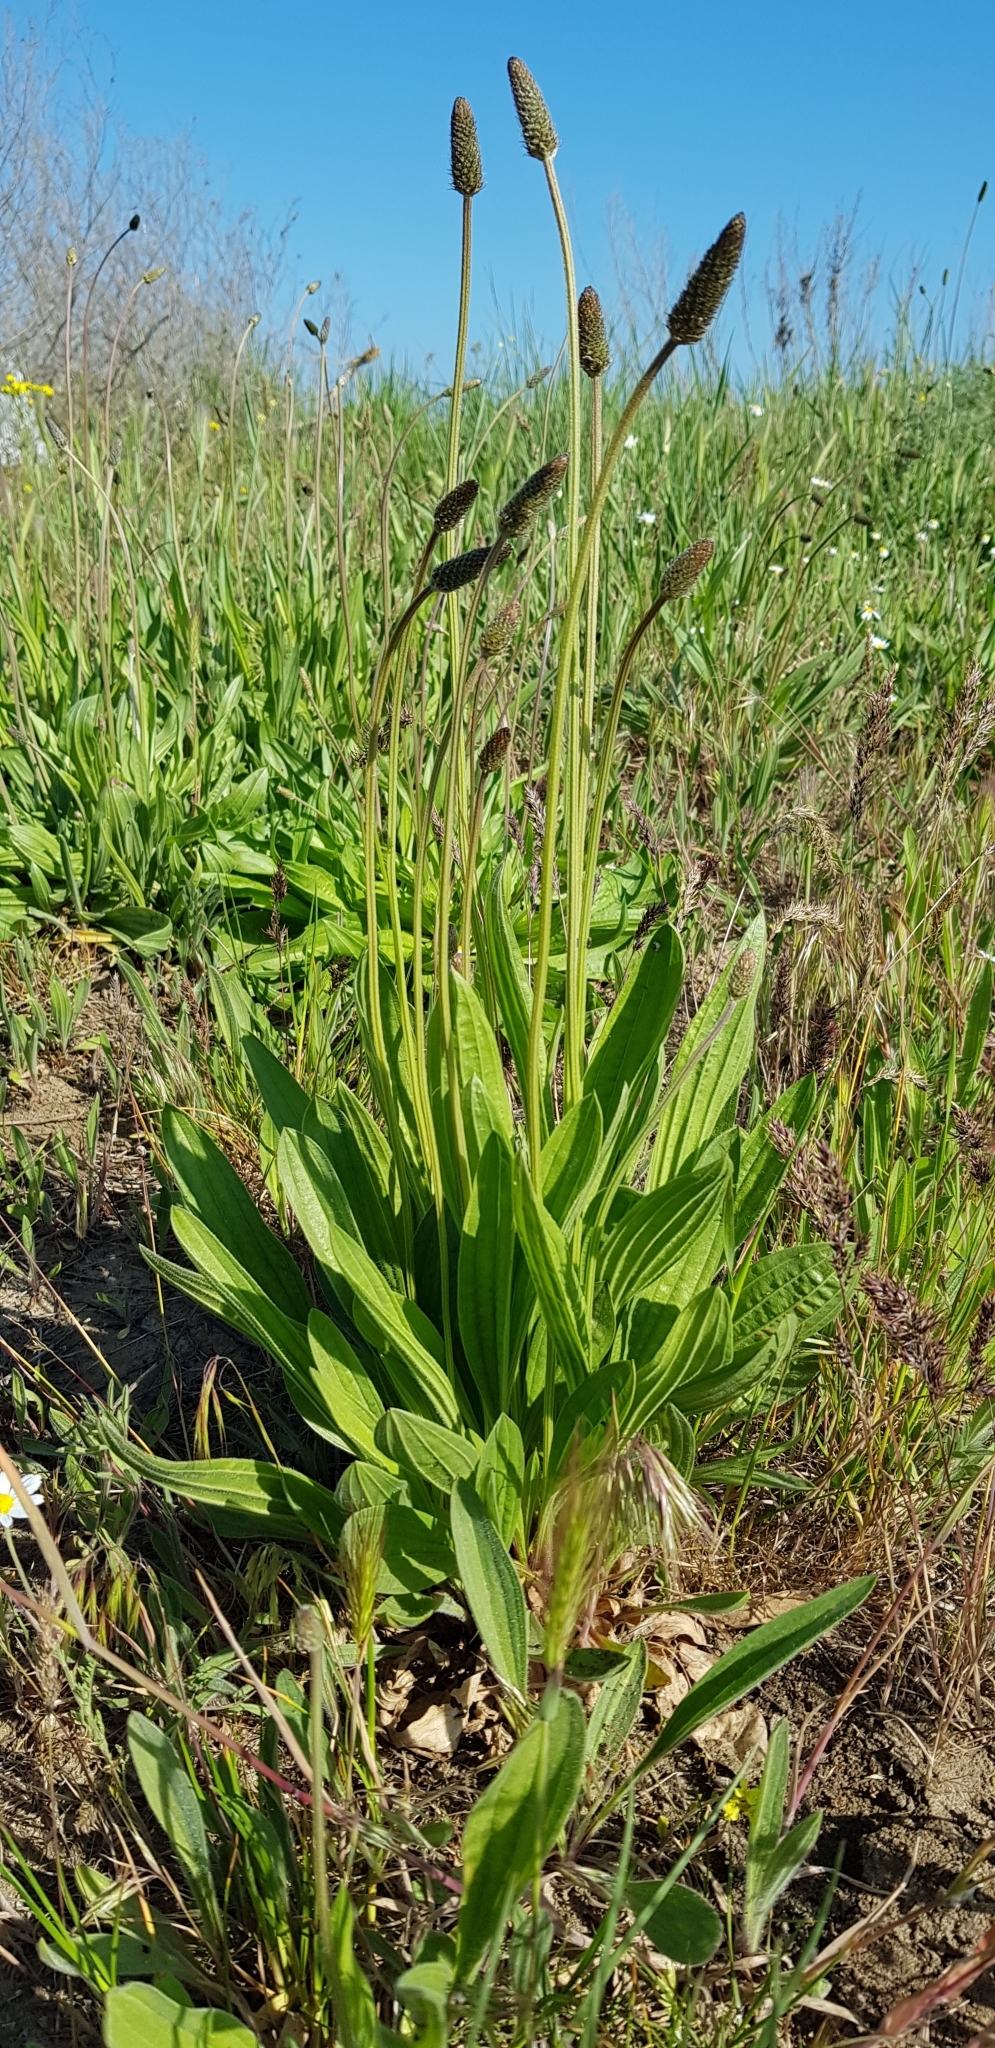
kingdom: Plantae
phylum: Tracheophyta
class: Magnoliopsida
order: Lamiales
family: Plantaginaceae
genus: Plantago
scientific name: Plantago lanceolata
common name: Ribwort plantain
